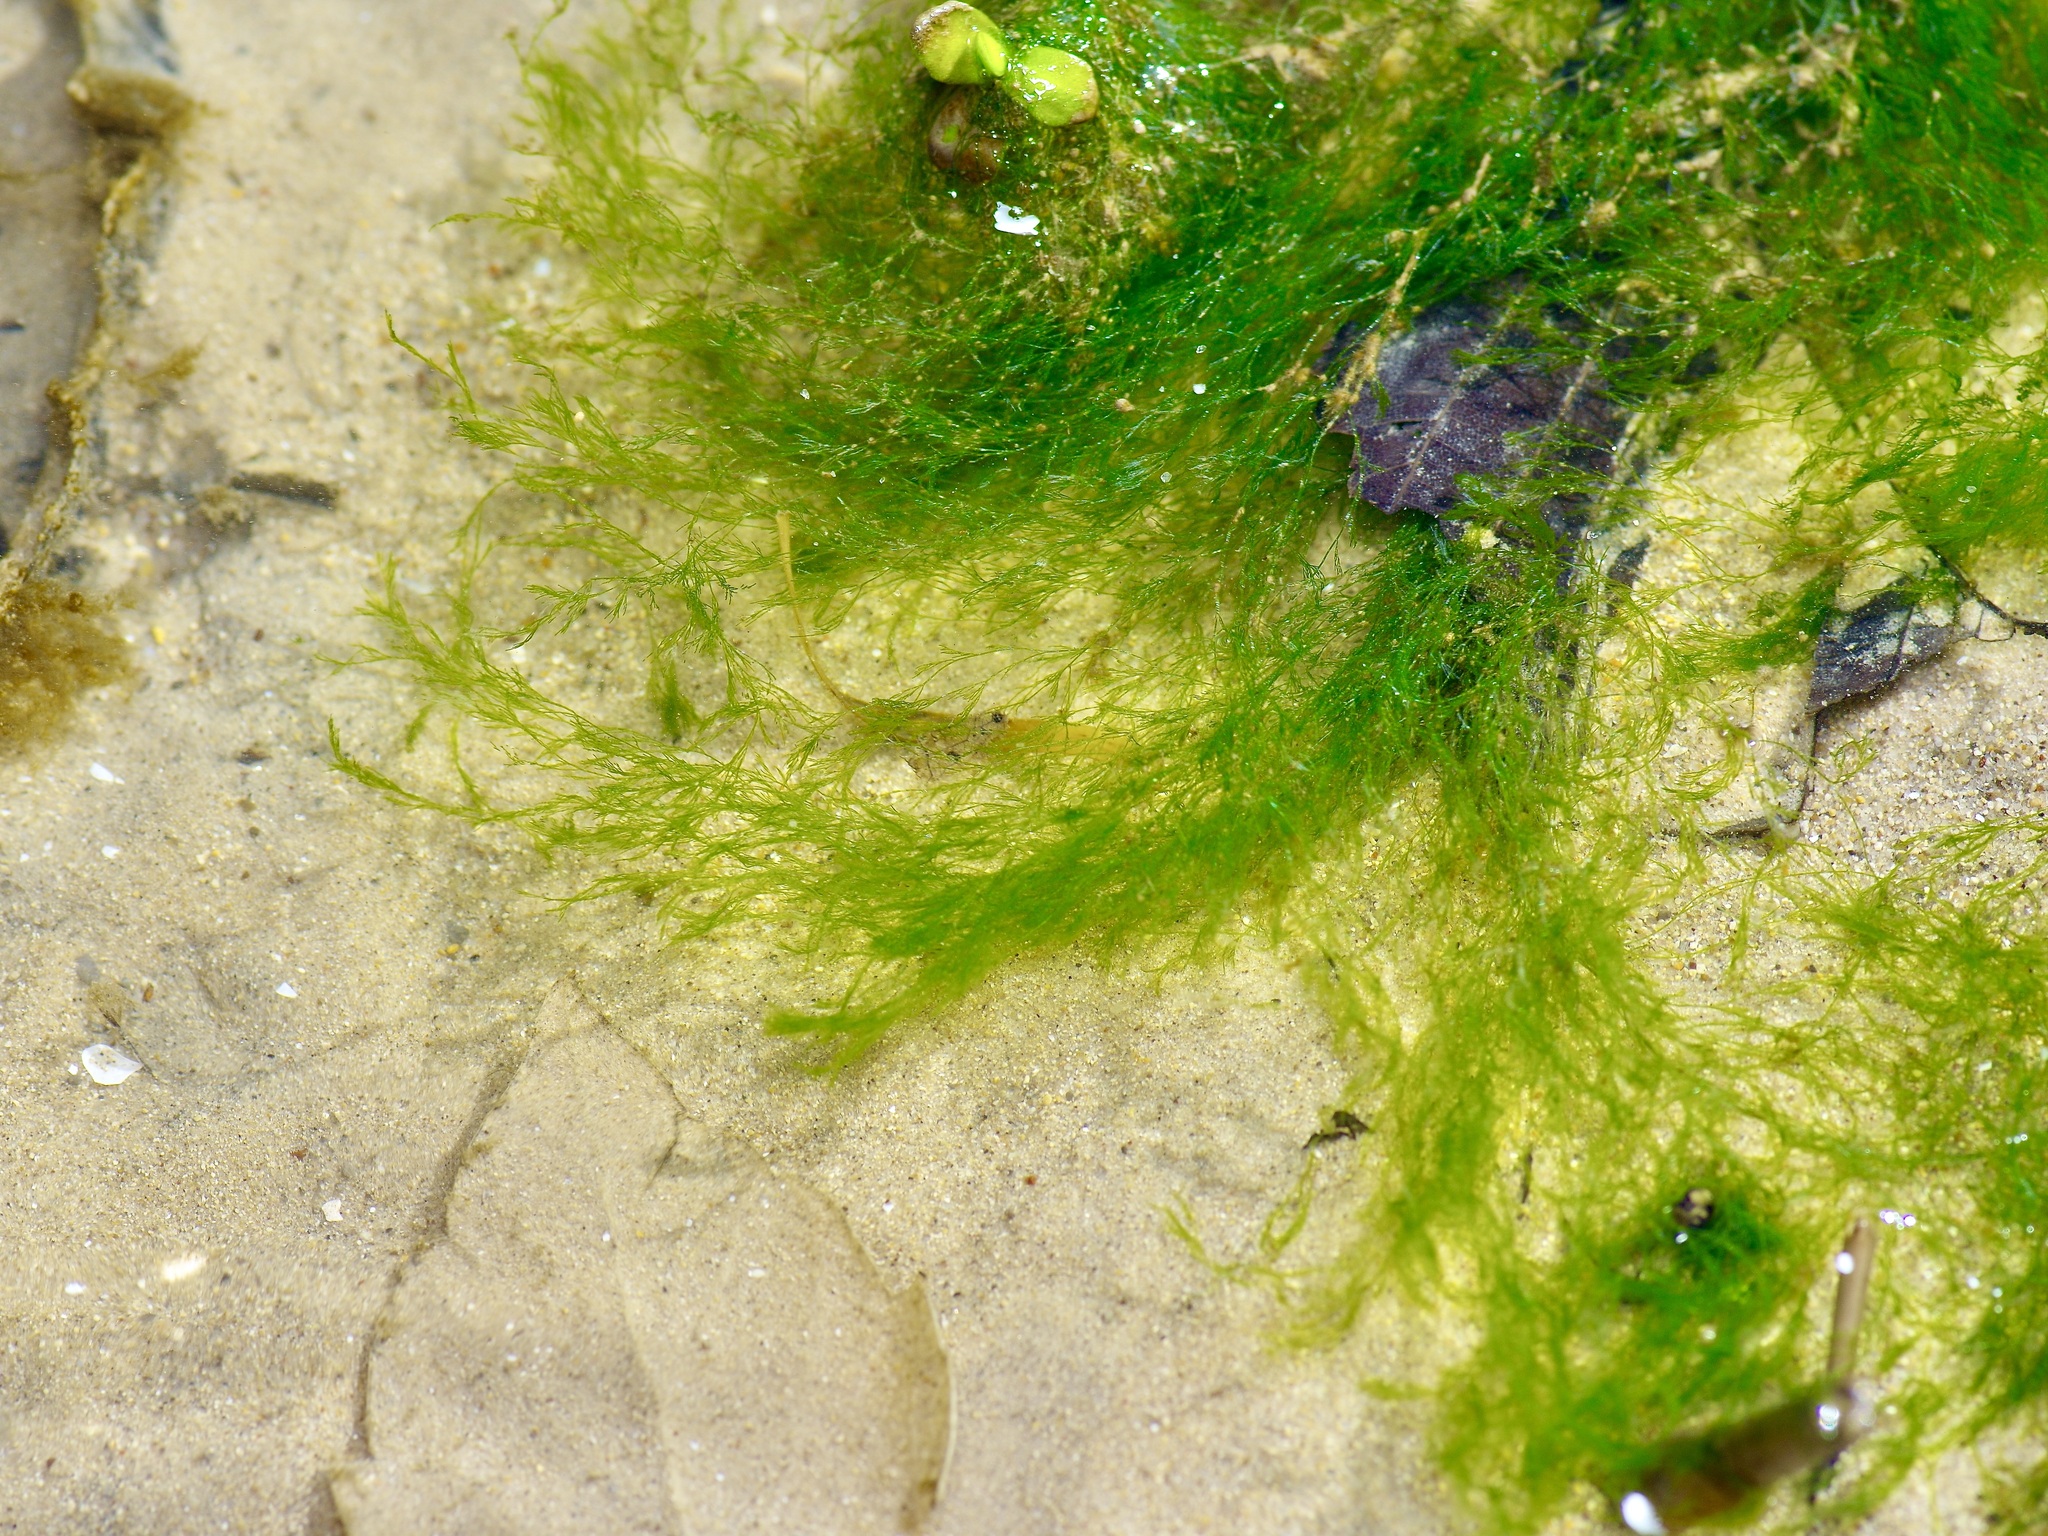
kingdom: Plantae
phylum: Chlorophyta
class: Ulvophyceae
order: Cladophorales
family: Cladophoraceae
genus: Cladophora
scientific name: Cladophora glomerata
